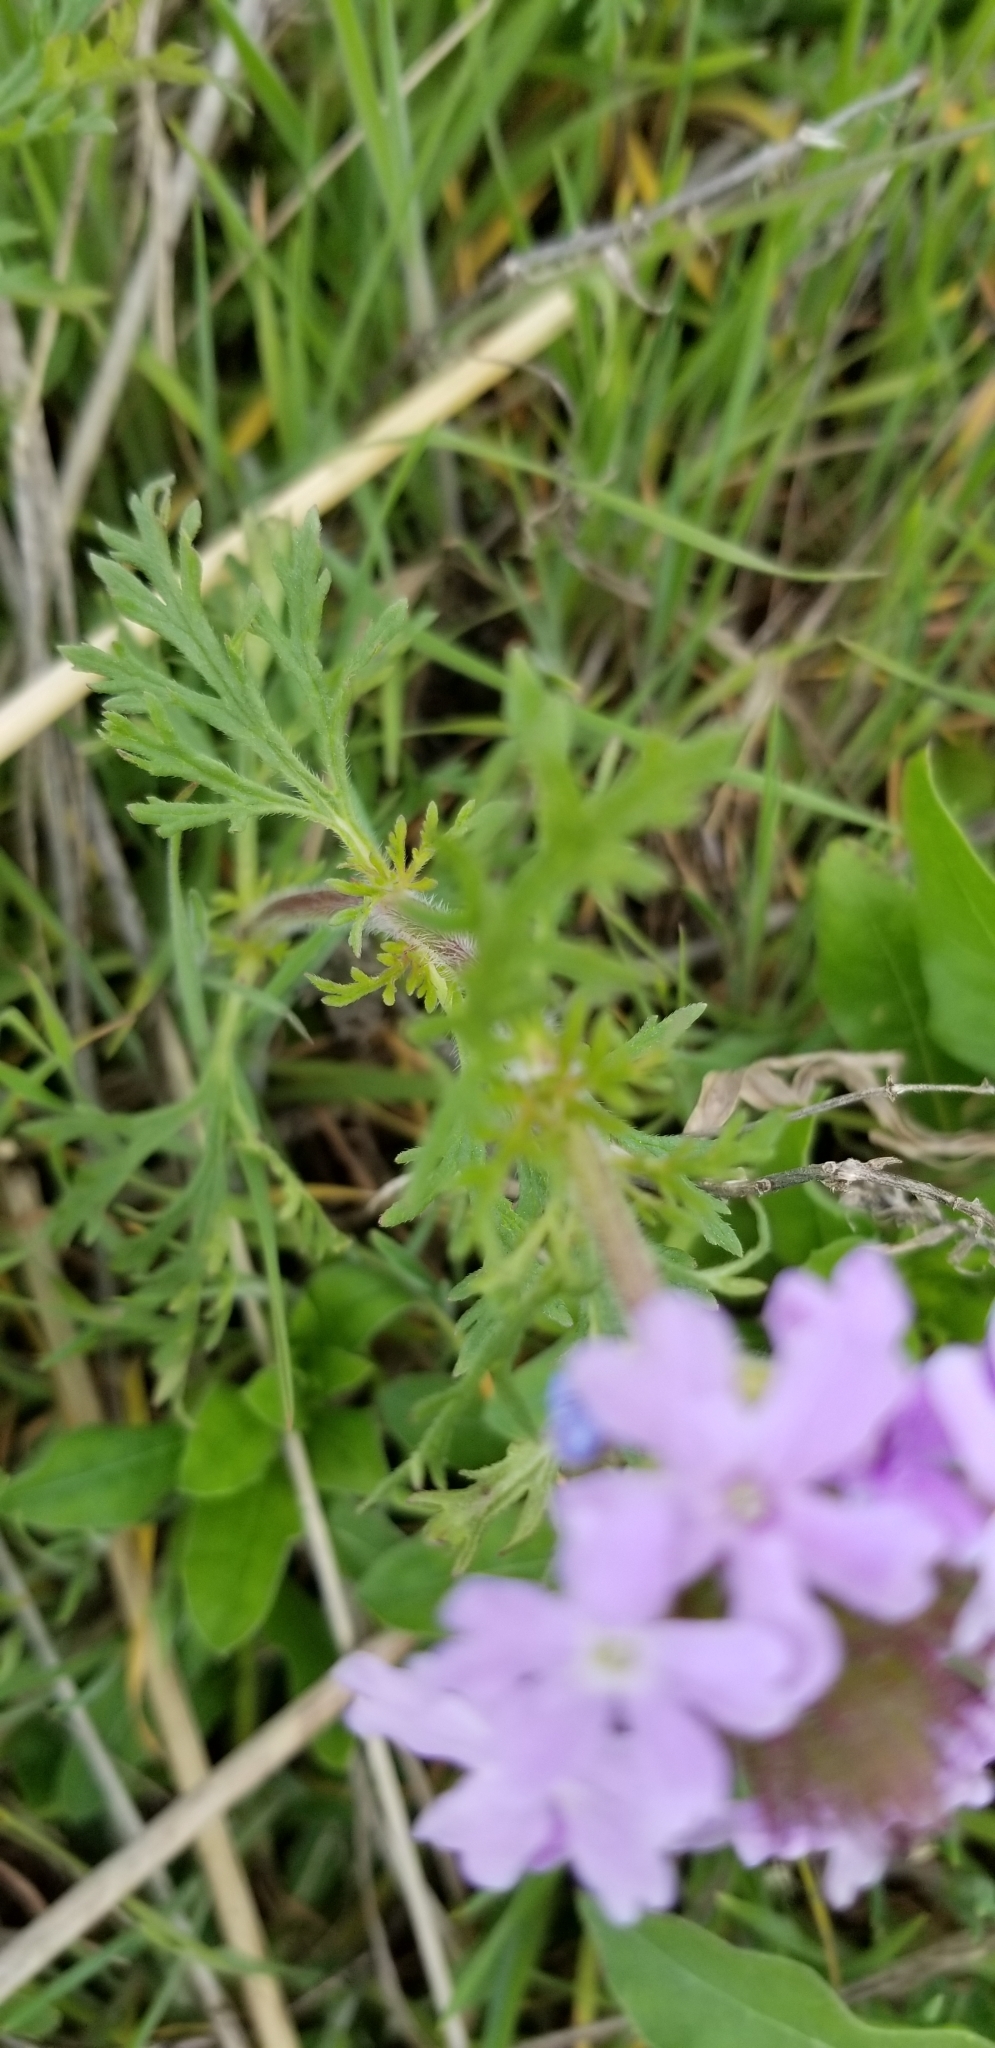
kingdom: Plantae
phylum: Tracheophyta
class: Magnoliopsida
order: Lamiales
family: Verbenaceae
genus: Verbena
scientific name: Verbena bipinnatifida
